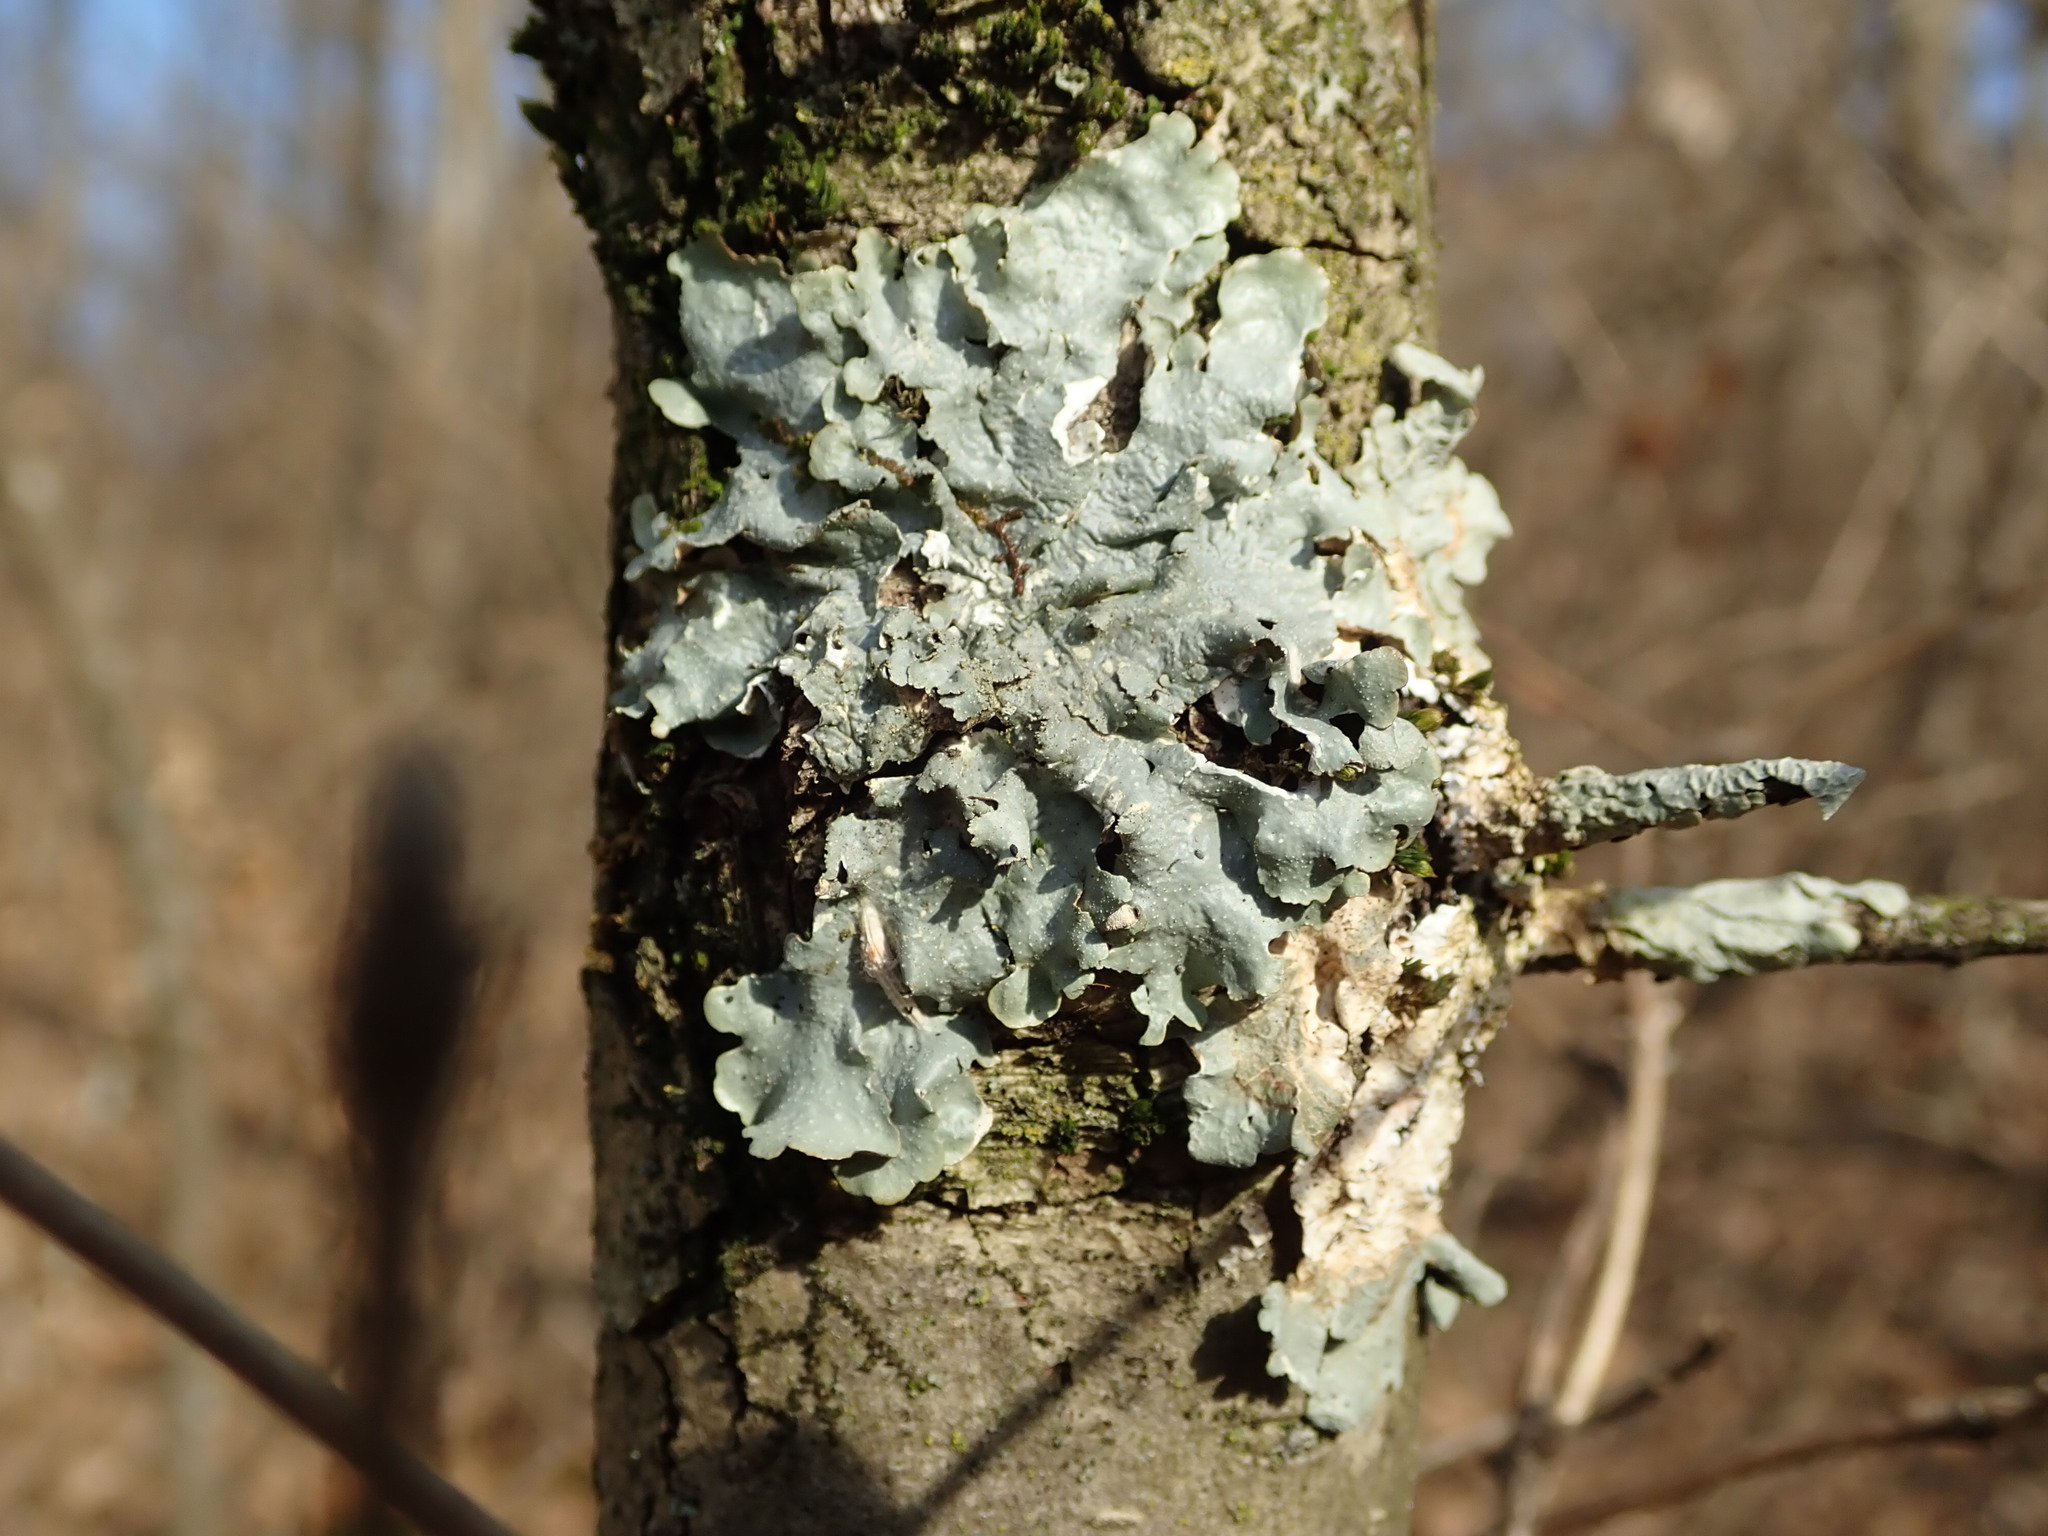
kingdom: Fungi
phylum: Ascomycota
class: Lecanoromycetes
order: Lecanorales
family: Parmeliaceae
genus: Punctelia
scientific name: Punctelia rudecta
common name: Rough speckled shield lichen
